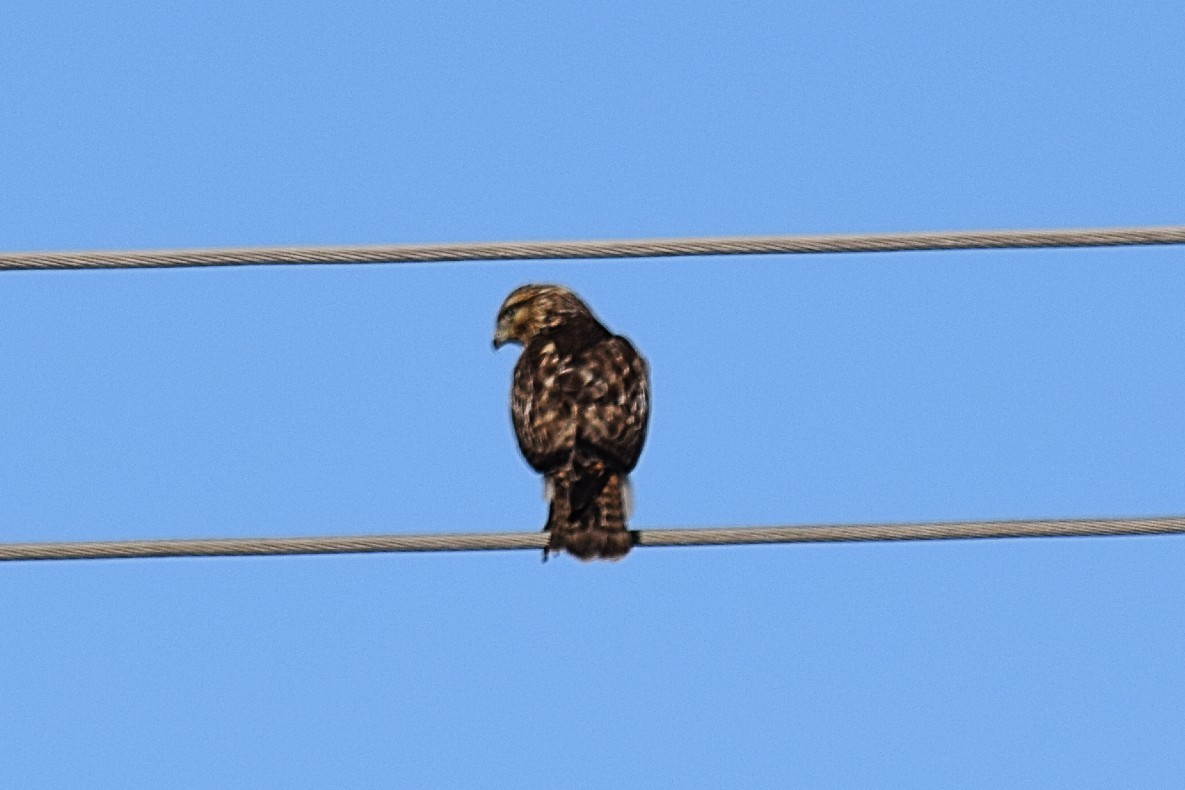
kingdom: Animalia
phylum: Chordata
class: Aves
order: Accipitriformes
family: Accipitridae
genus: Buteo
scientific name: Buteo lineatus
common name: Red-shouldered hawk
